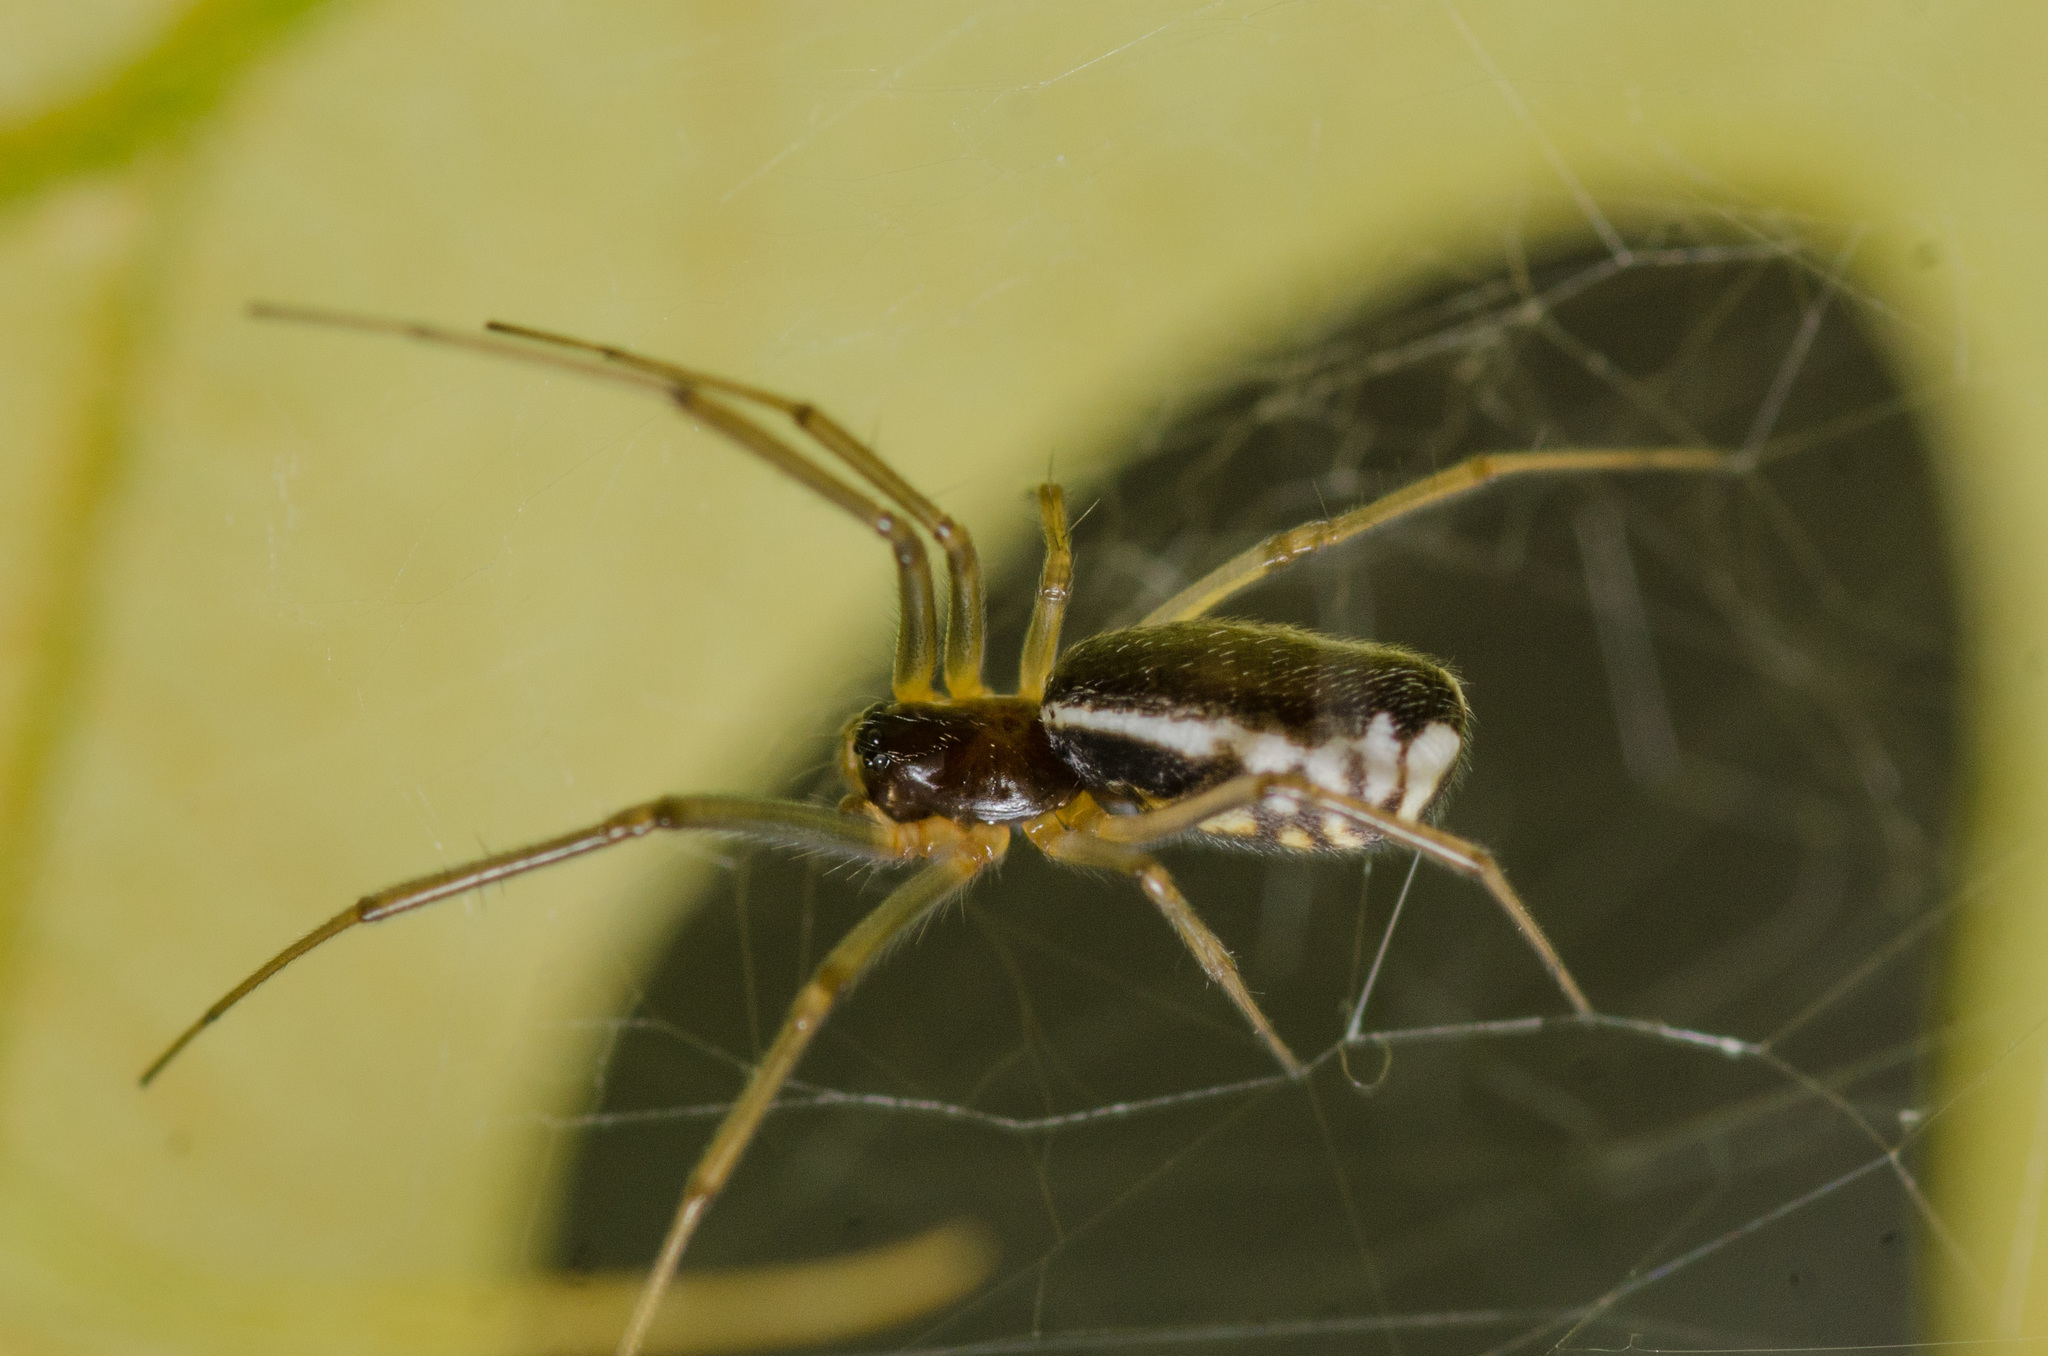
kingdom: Animalia
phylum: Arthropoda
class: Arachnida
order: Araneae
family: Linyphiidae
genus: Frontinella
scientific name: Frontinella pyramitela
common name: Bowl-and-doily spider
